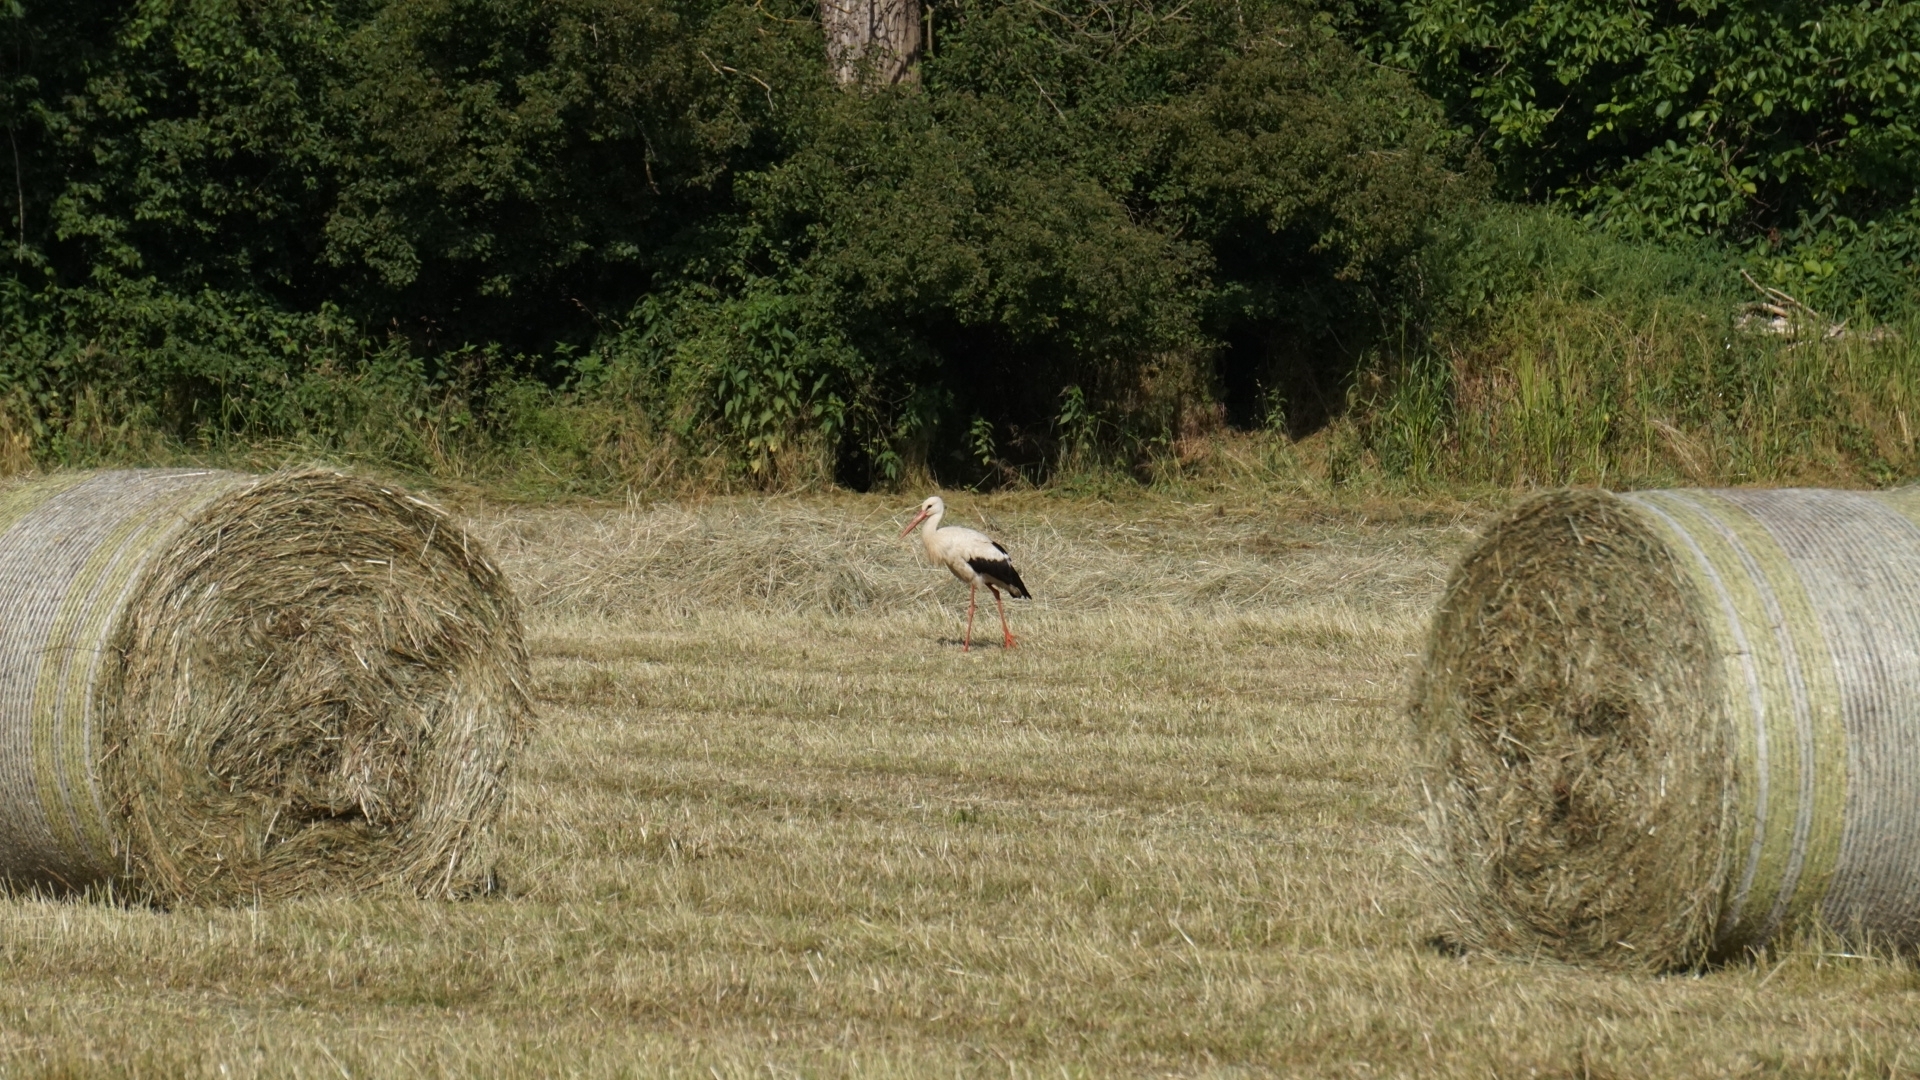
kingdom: Animalia
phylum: Chordata
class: Aves
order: Ciconiiformes
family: Ciconiidae
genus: Ciconia
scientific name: Ciconia ciconia
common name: White stork
